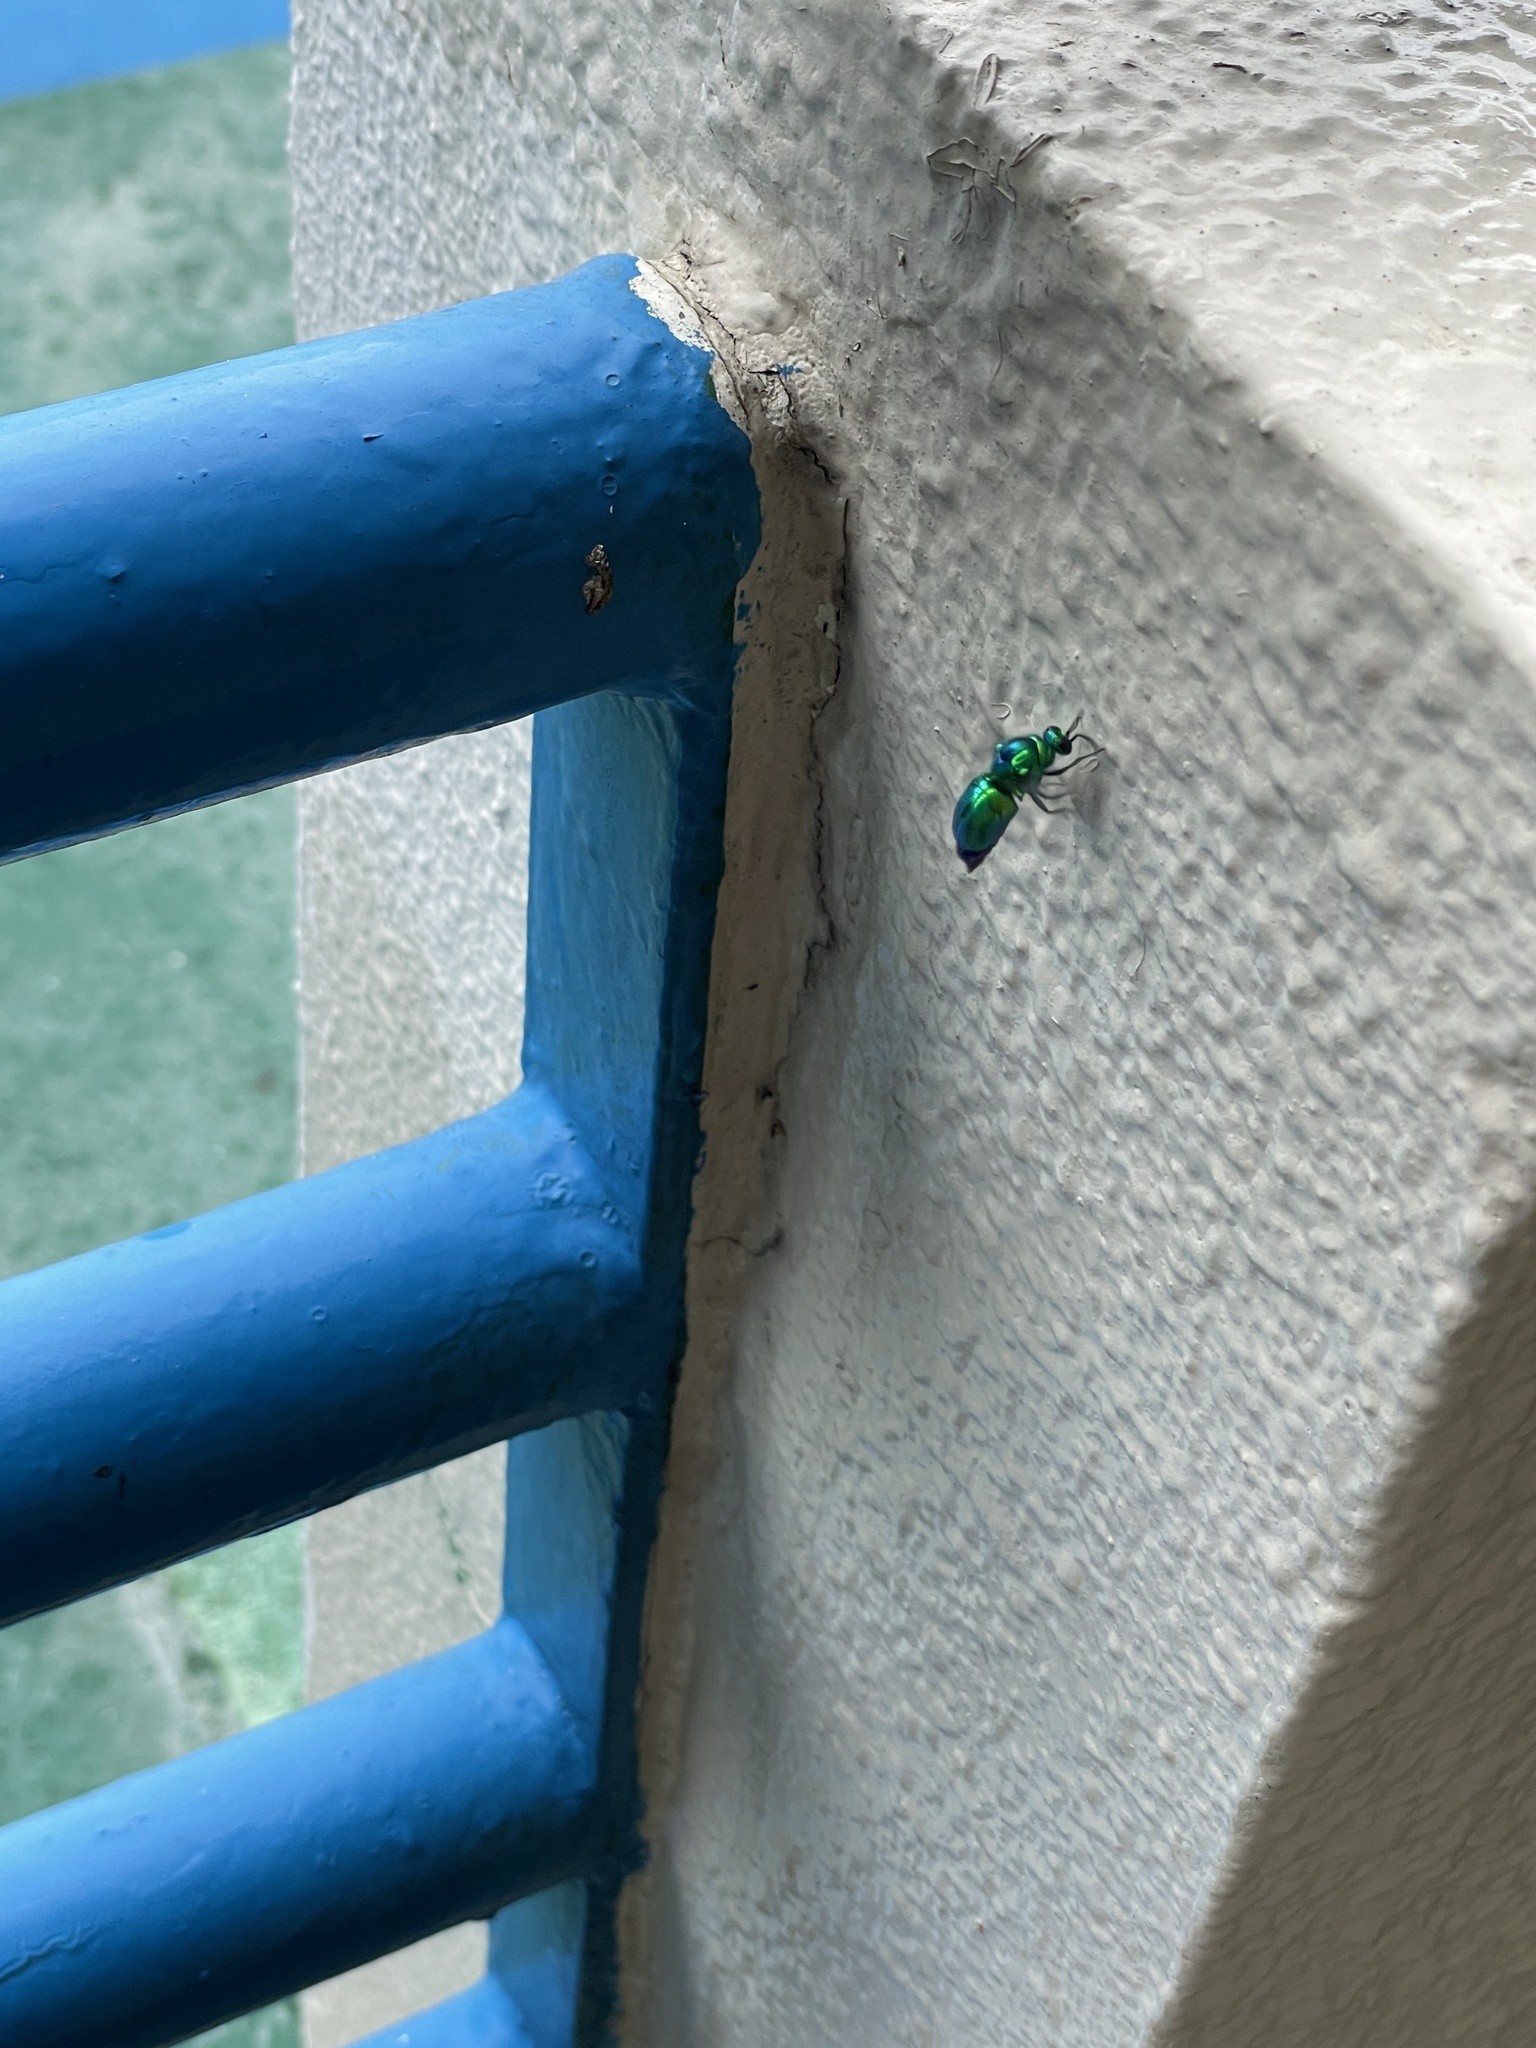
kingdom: Animalia
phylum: Arthropoda
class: Insecta
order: Hymenoptera
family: Chrysididae
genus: Stilbum
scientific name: Stilbum cyanurum
